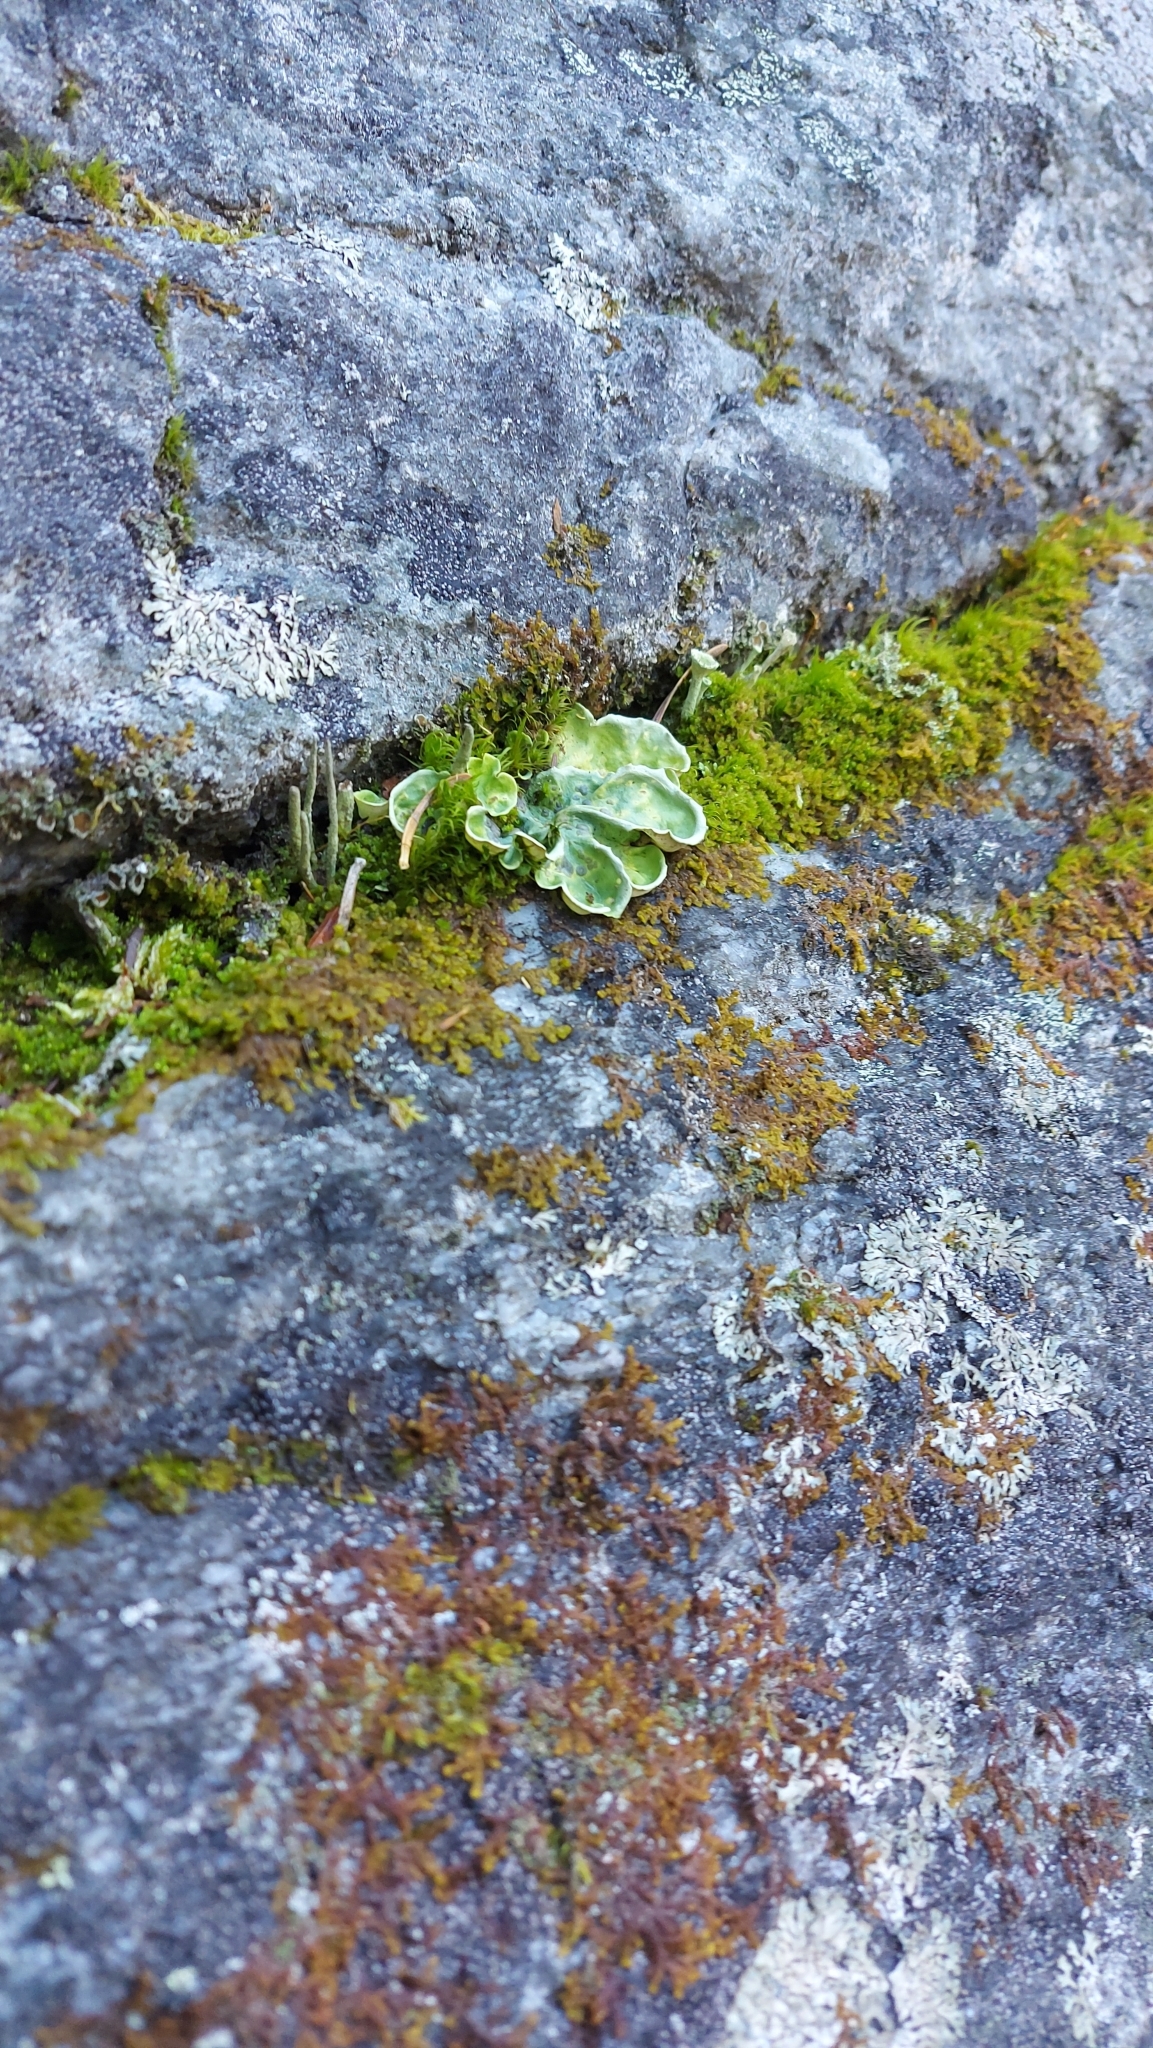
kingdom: Fungi
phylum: Ascomycota
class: Lecanoromycetes
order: Peltigerales
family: Nephromataceae
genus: Nephroma
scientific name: Nephroma arcticum
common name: Arctic kidney-lichen
